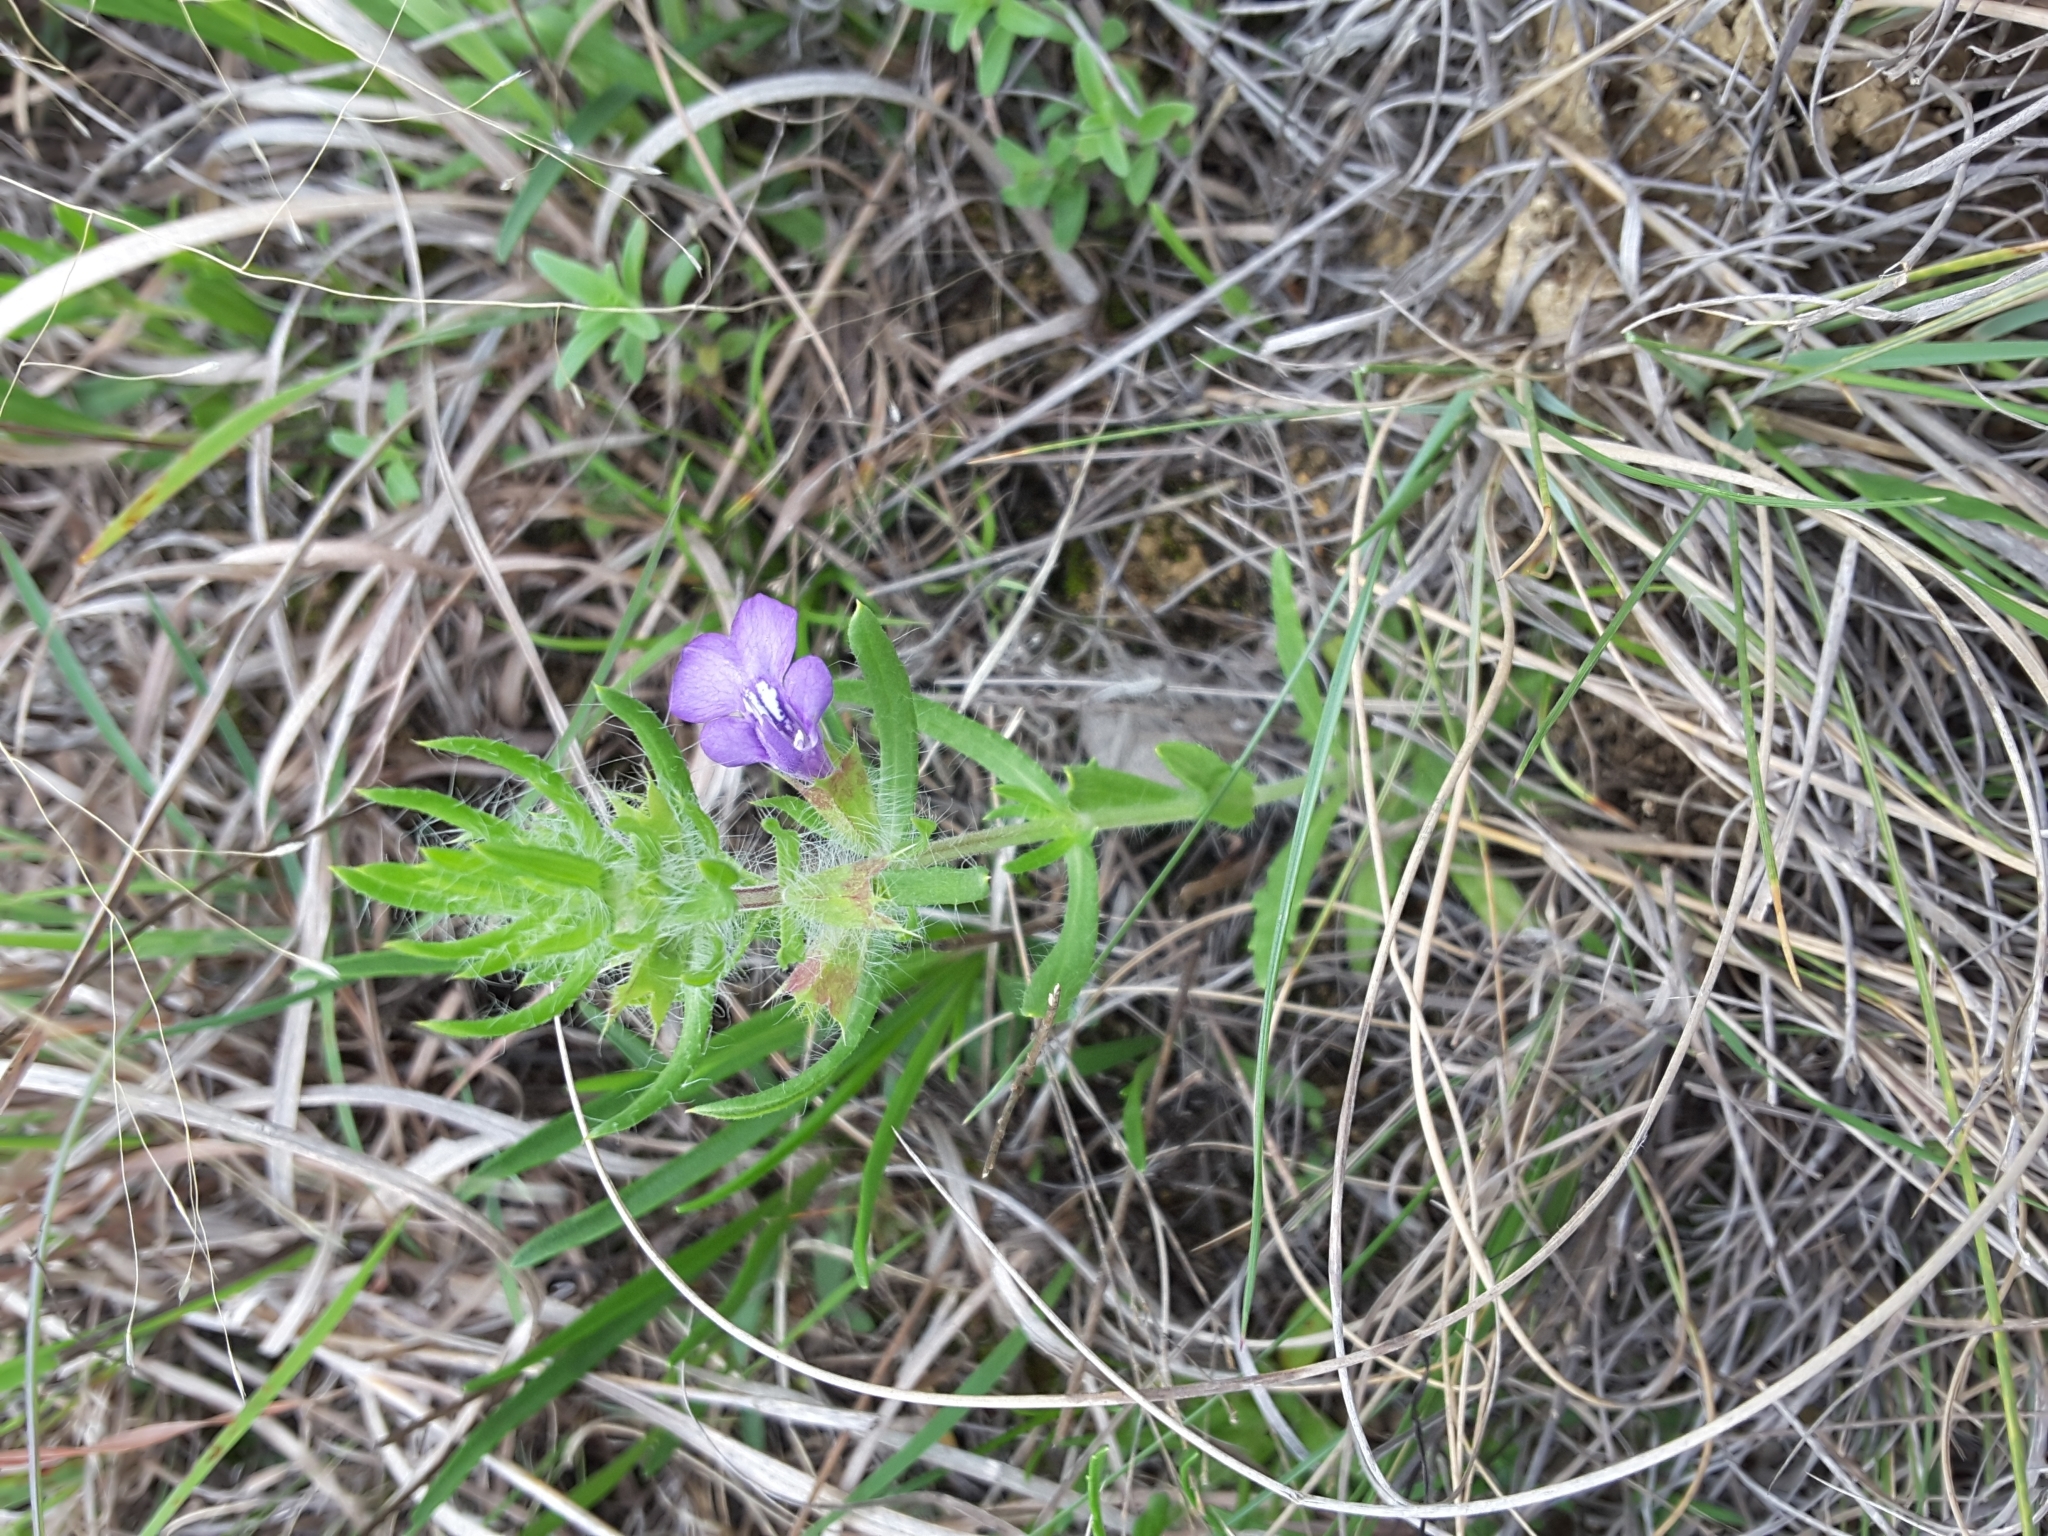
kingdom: Plantae
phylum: Tracheophyta
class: Magnoliopsida
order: Lamiales
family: Lamiaceae
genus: Salvia
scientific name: Salvia texana
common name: Texas sage
